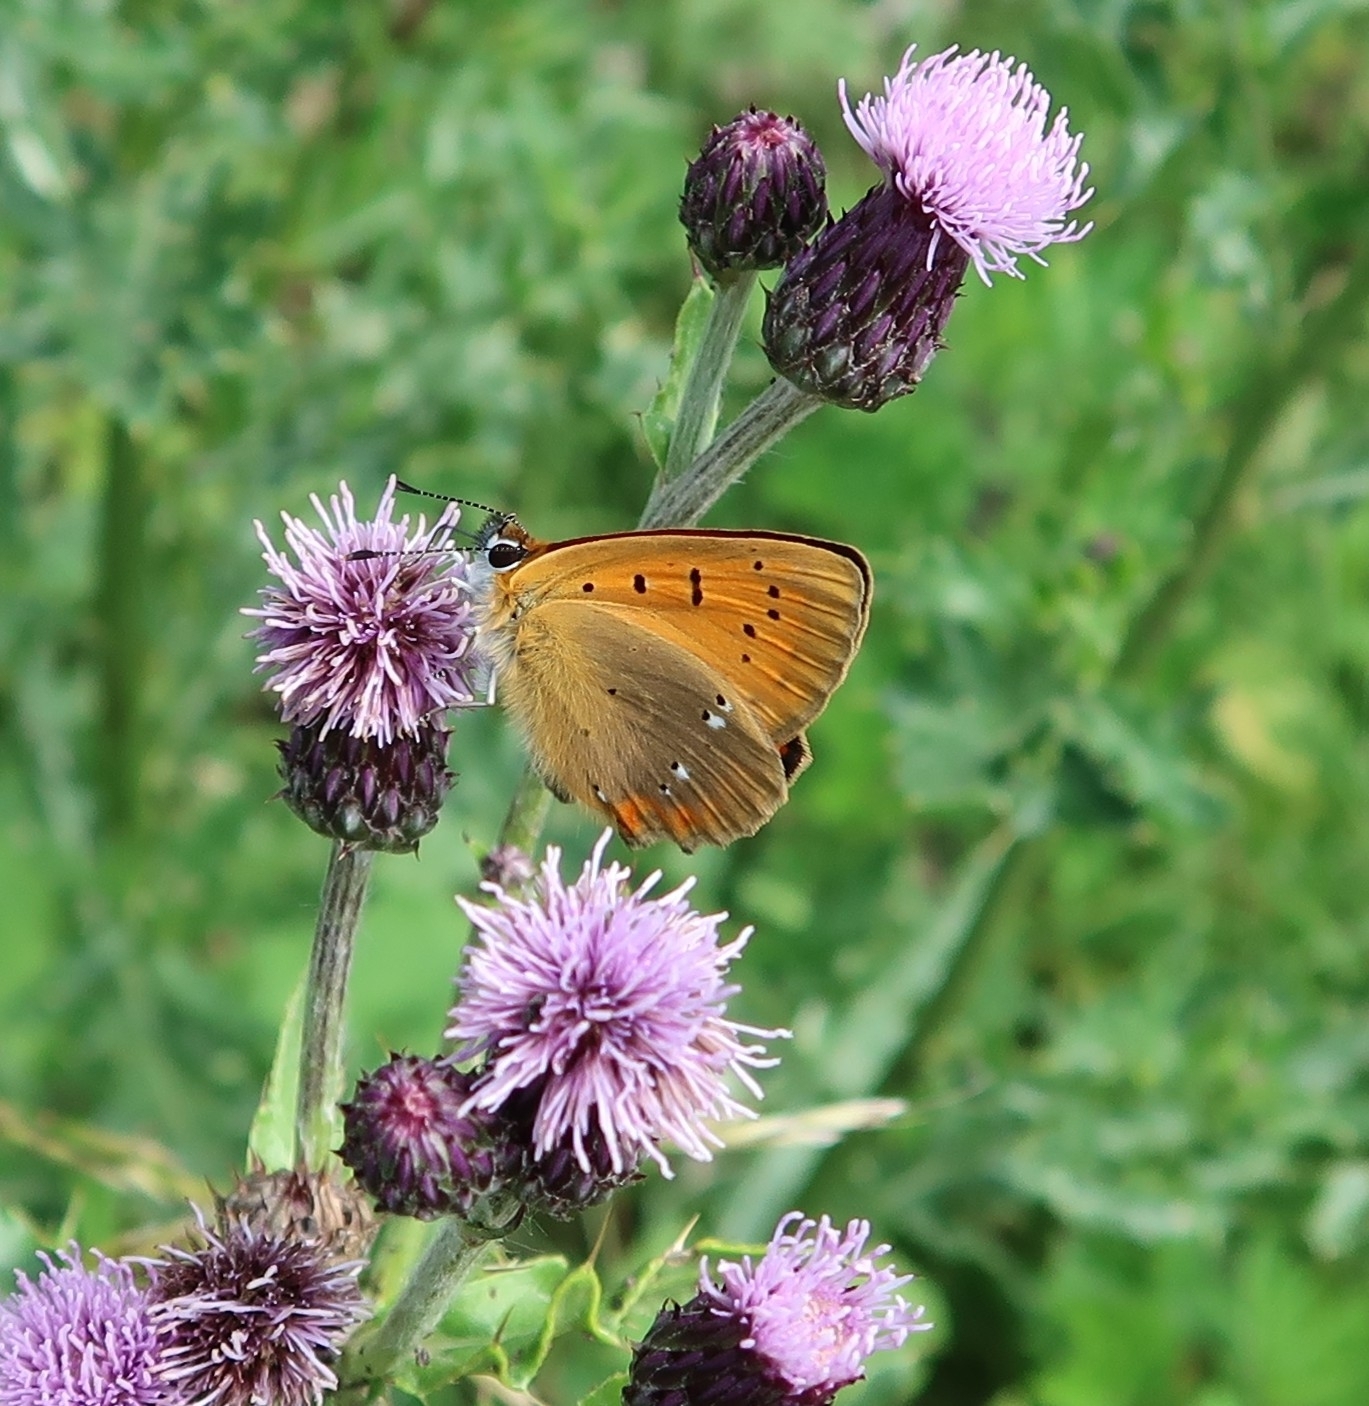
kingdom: Animalia
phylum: Arthropoda
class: Insecta
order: Lepidoptera
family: Lycaenidae
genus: Lycaena
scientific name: Lycaena virgaureae
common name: Scarce copper
